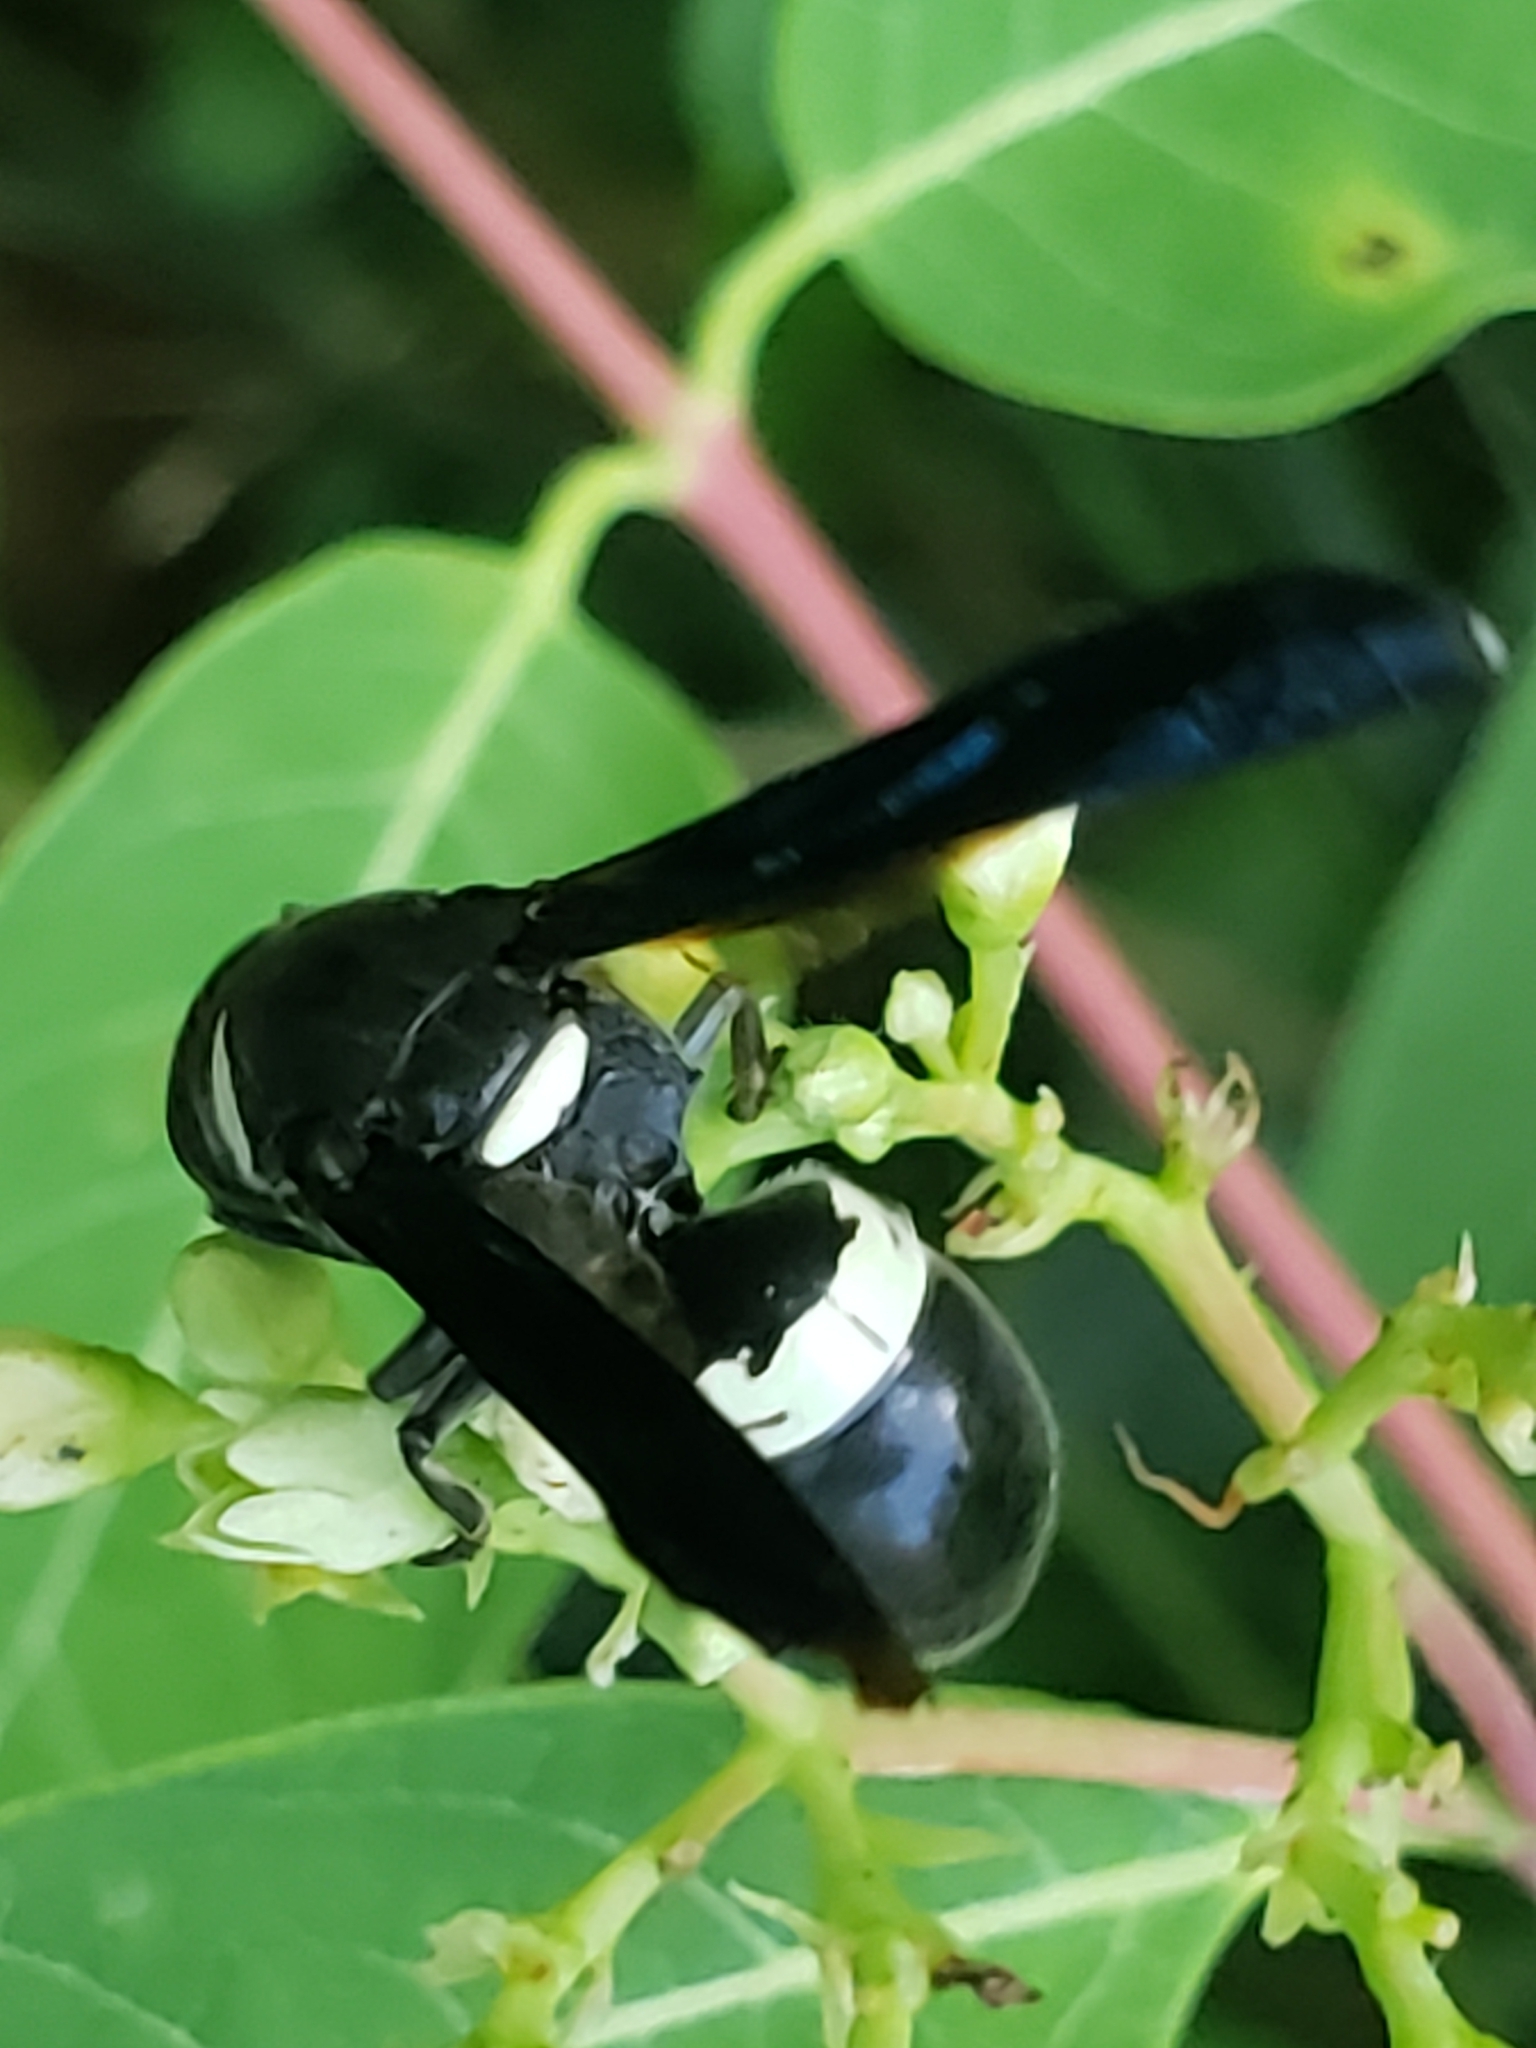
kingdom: Animalia
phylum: Arthropoda
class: Insecta
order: Hymenoptera
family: Eumenidae
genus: Monobia
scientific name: Monobia quadridens
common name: Four-toothed mason wasp
